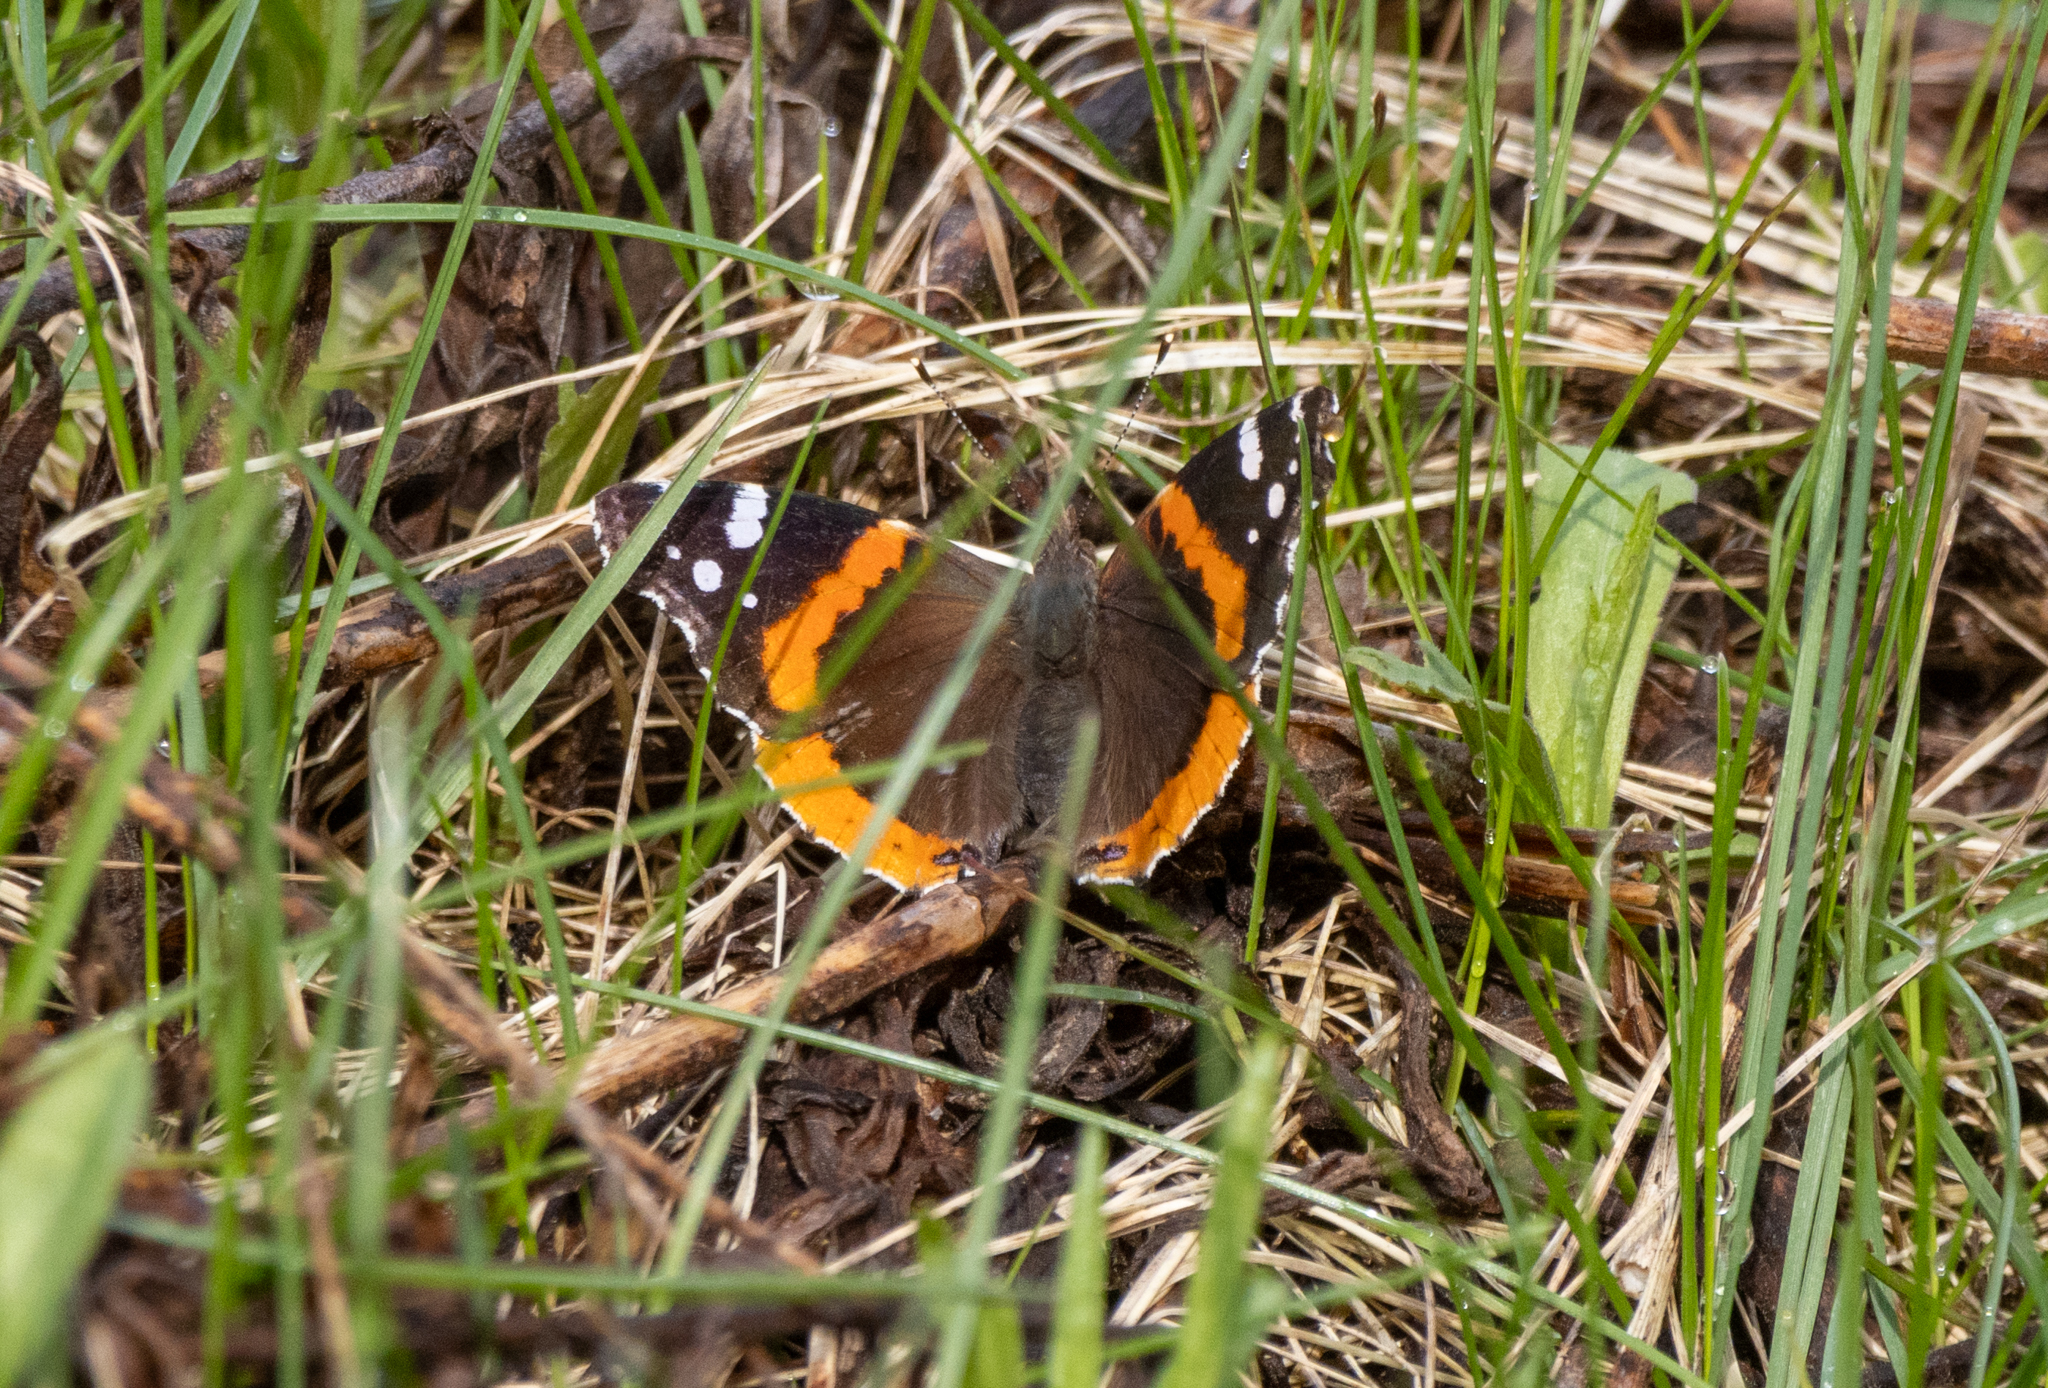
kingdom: Animalia
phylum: Arthropoda
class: Insecta
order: Lepidoptera
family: Nymphalidae
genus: Vanessa
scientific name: Vanessa atalanta
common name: Red admiral
